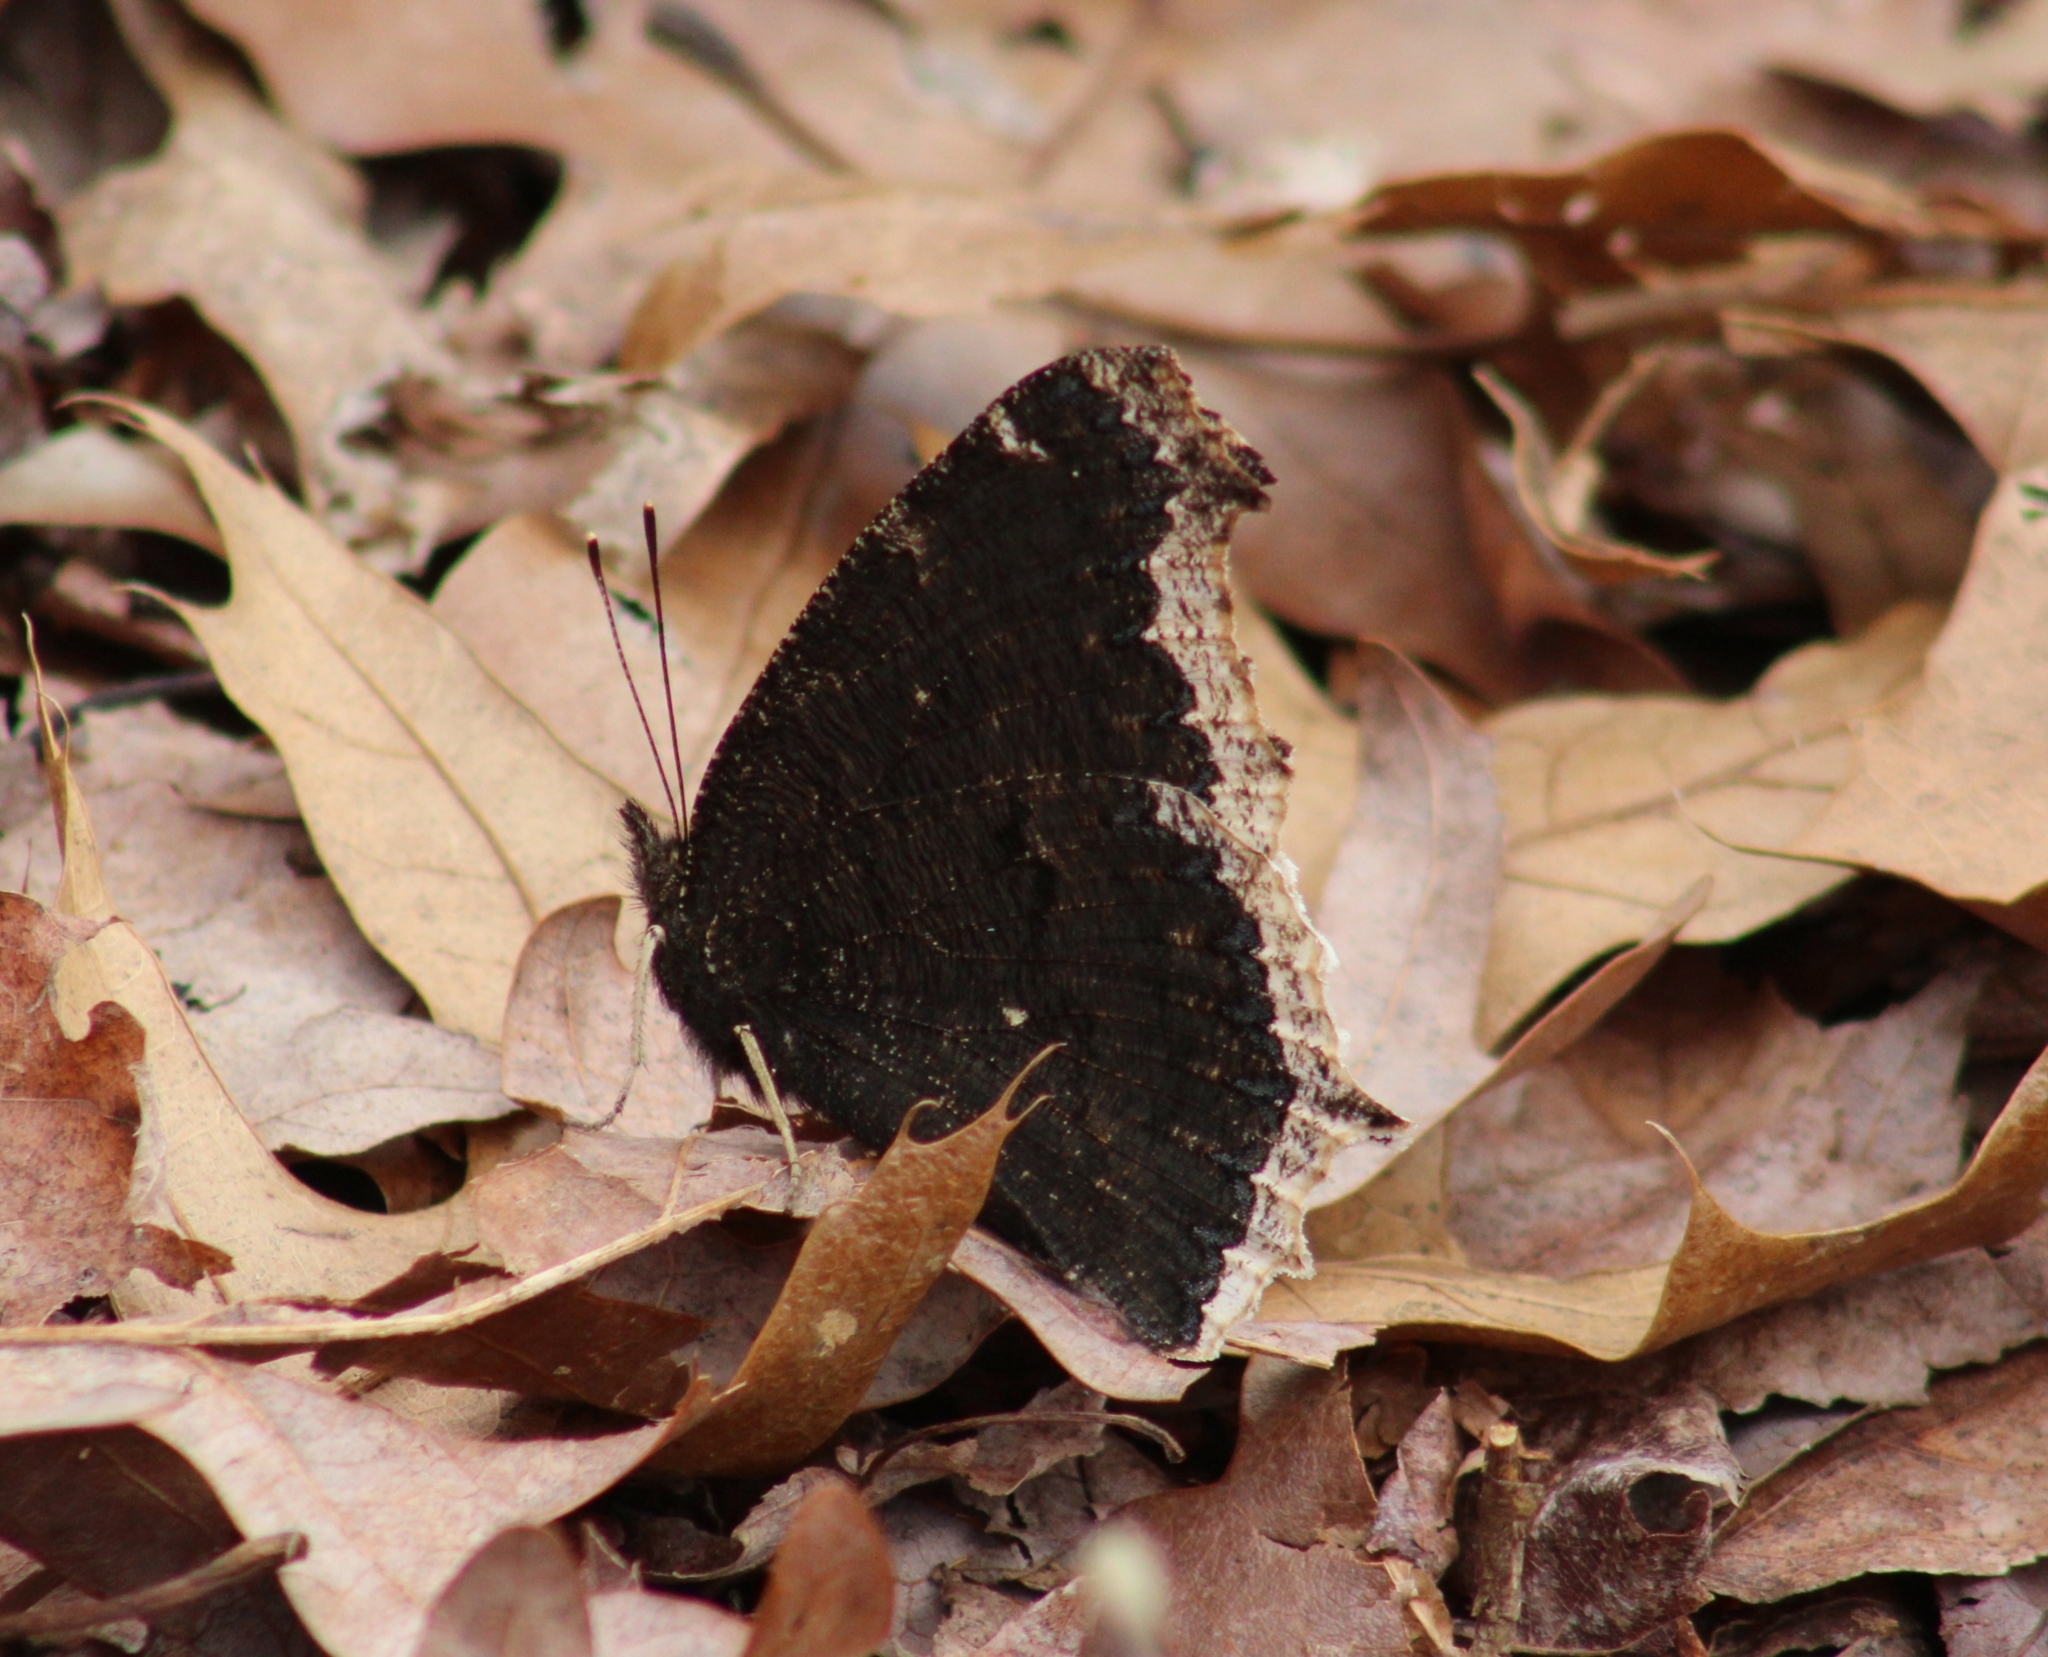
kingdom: Animalia
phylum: Arthropoda
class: Insecta
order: Lepidoptera
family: Nymphalidae
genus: Nymphalis
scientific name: Nymphalis antiopa
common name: Camberwell beauty
